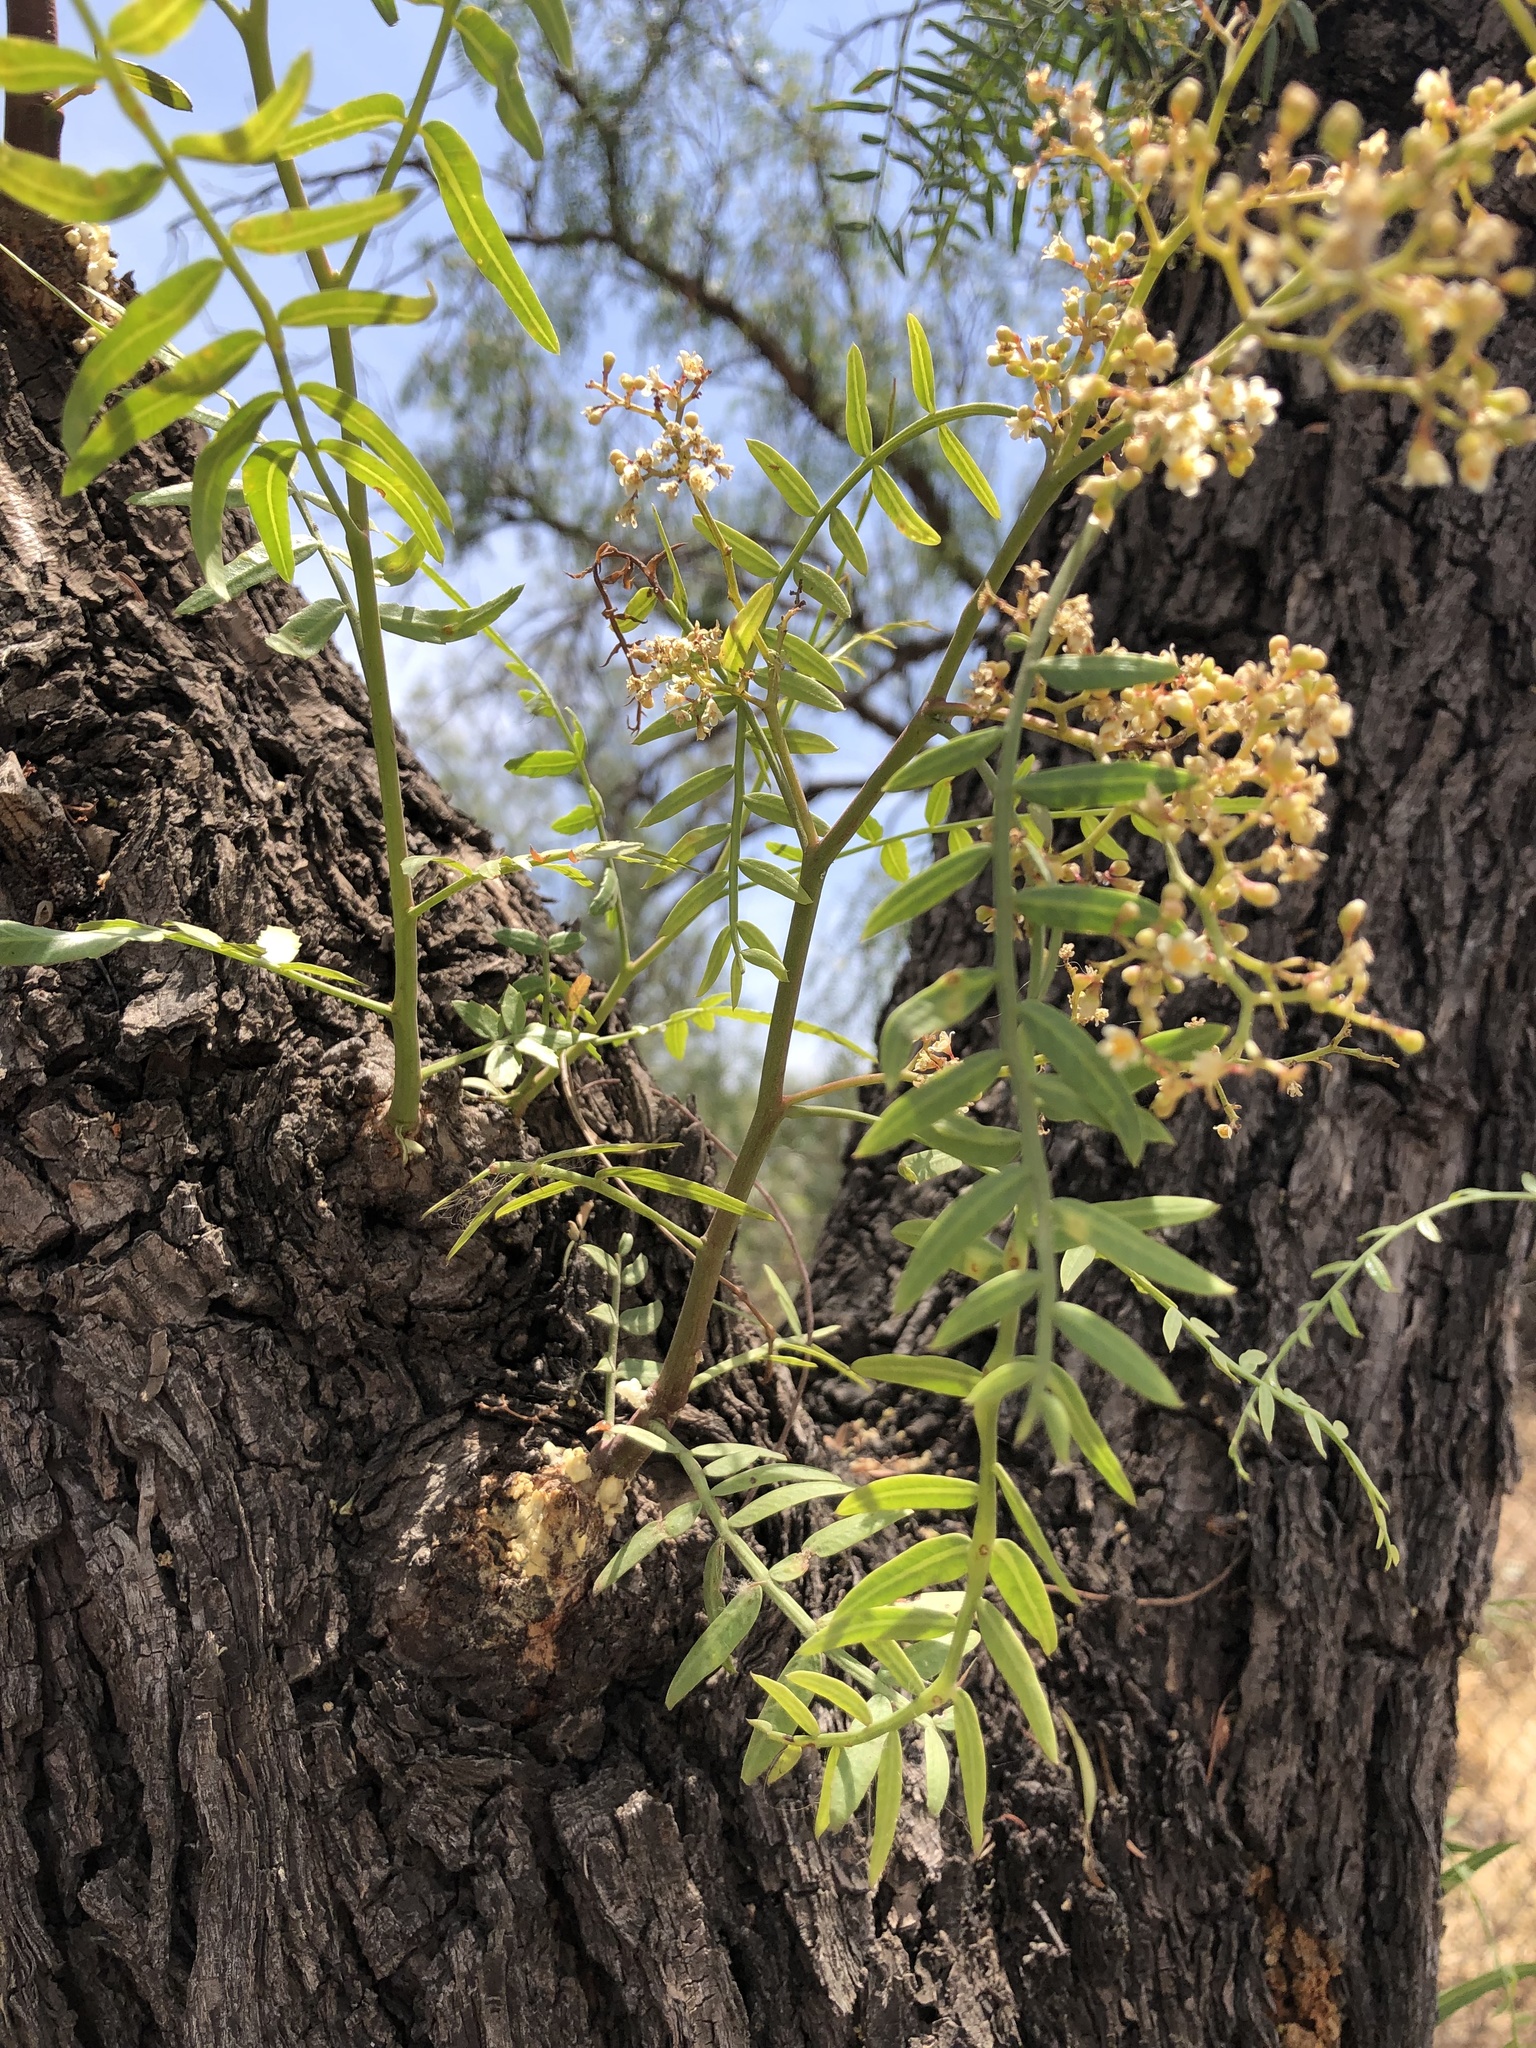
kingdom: Plantae
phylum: Tracheophyta
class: Magnoliopsida
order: Sapindales
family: Anacardiaceae
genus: Schinus
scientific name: Schinus molle
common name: Peruvian peppertree
